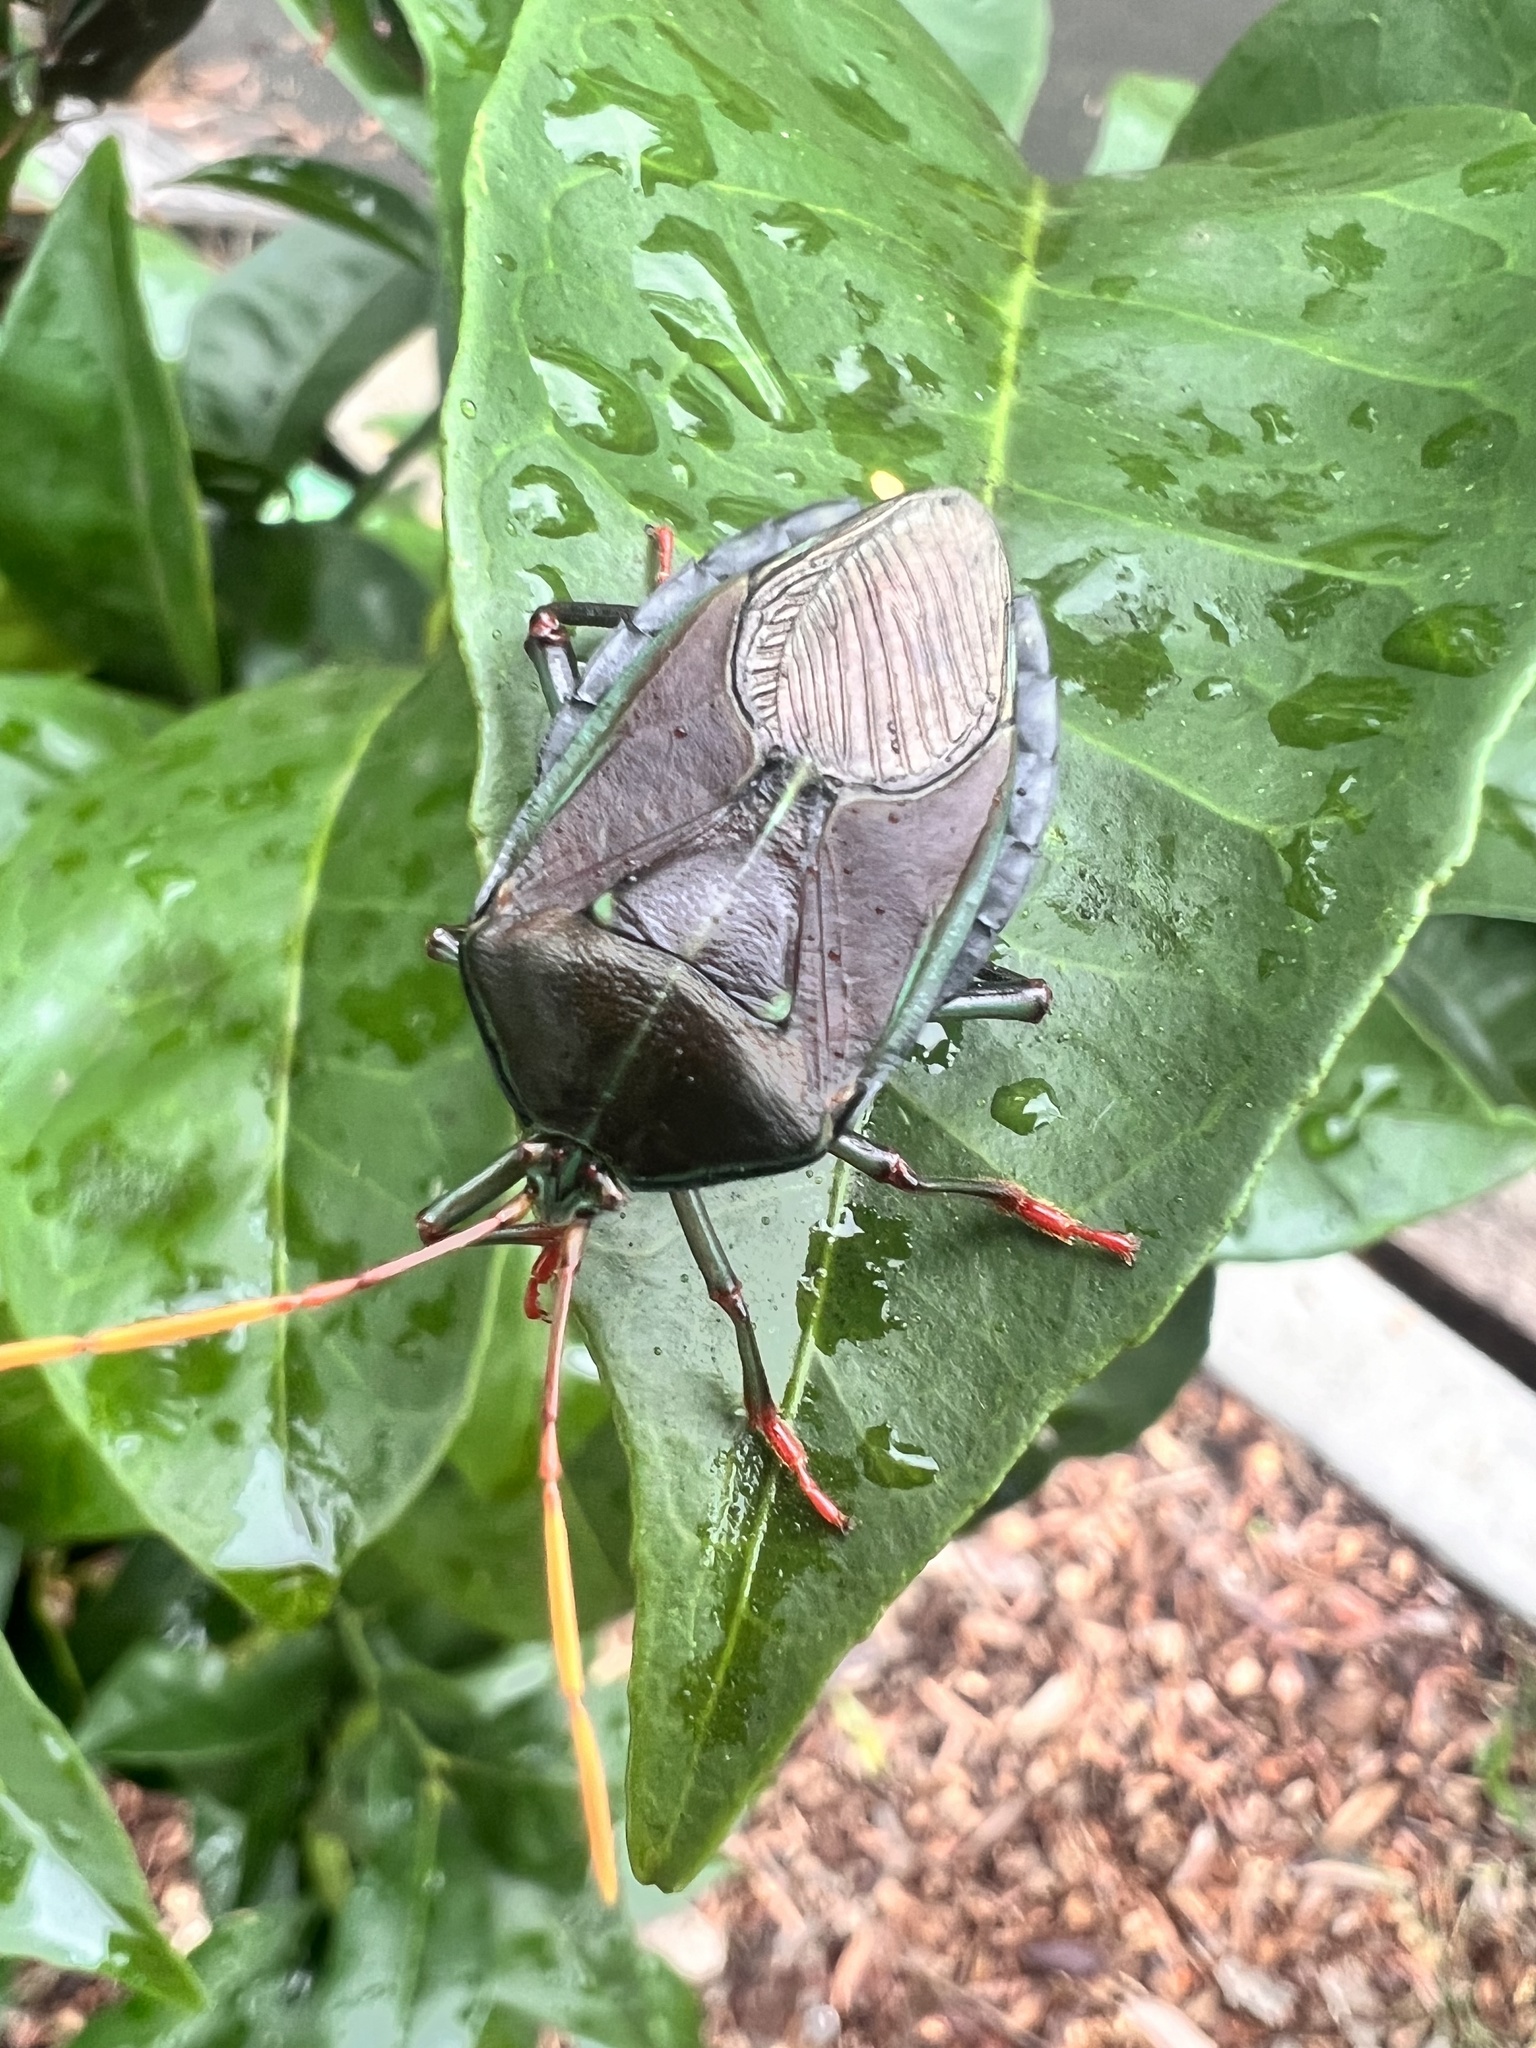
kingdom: Animalia
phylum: Arthropoda
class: Insecta
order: Hemiptera
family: Tessaratomidae
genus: Musgraveia
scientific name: Musgraveia sulciventris
